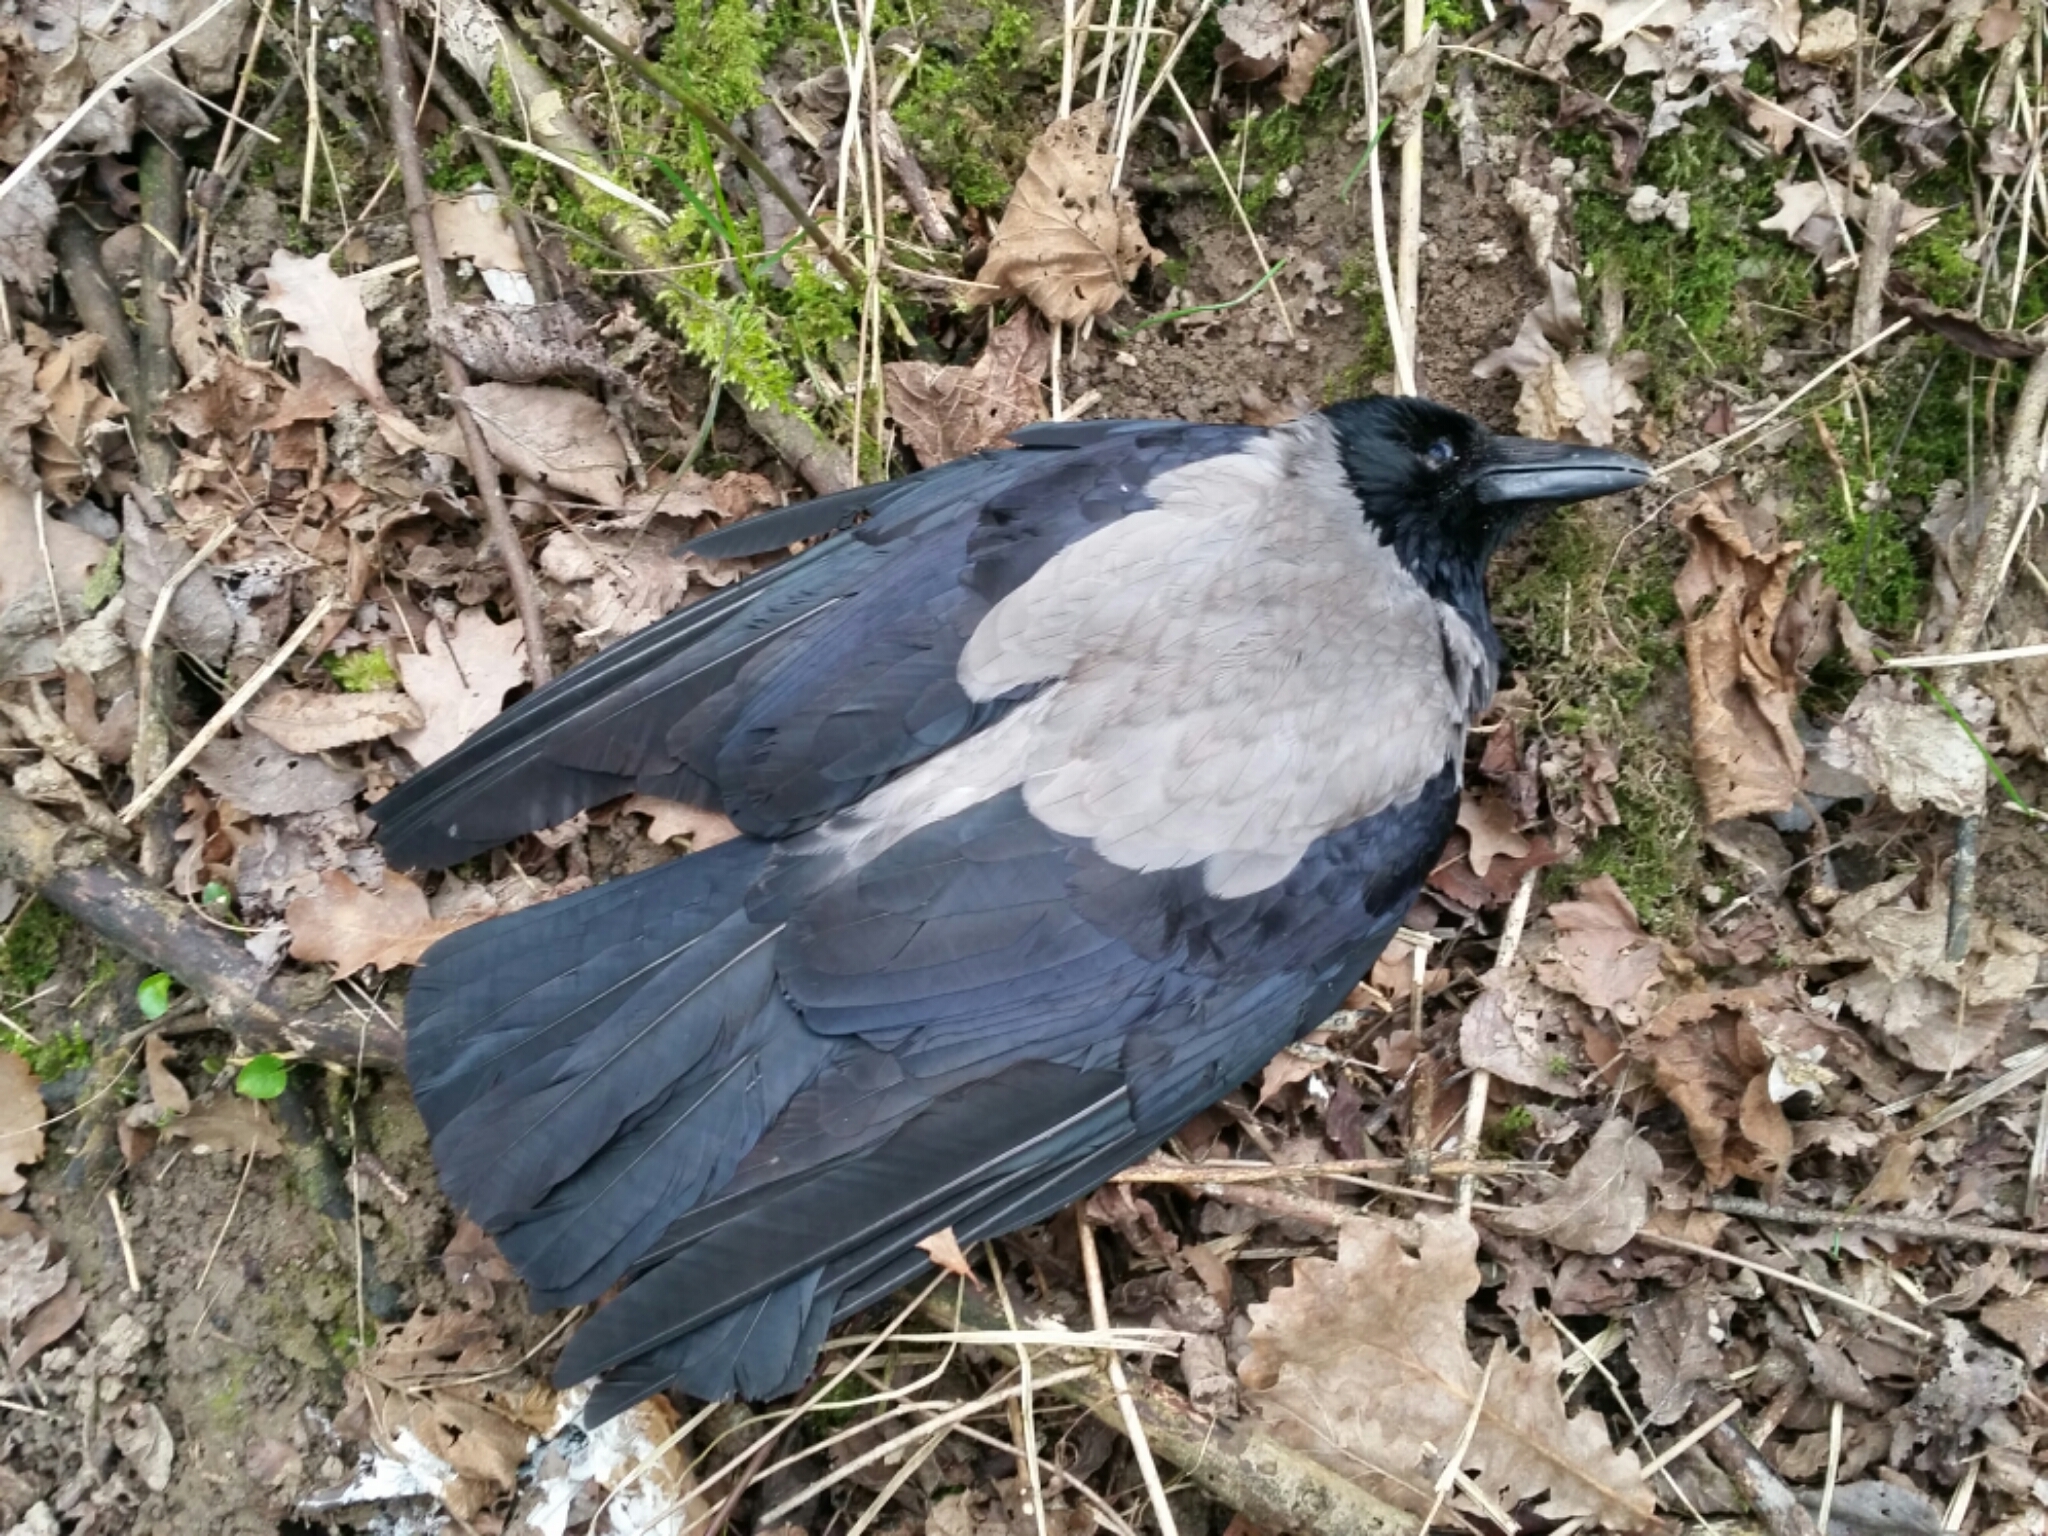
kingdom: Animalia
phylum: Chordata
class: Aves
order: Passeriformes
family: Corvidae
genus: Corvus
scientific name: Corvus cornix
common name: Hooded crow
